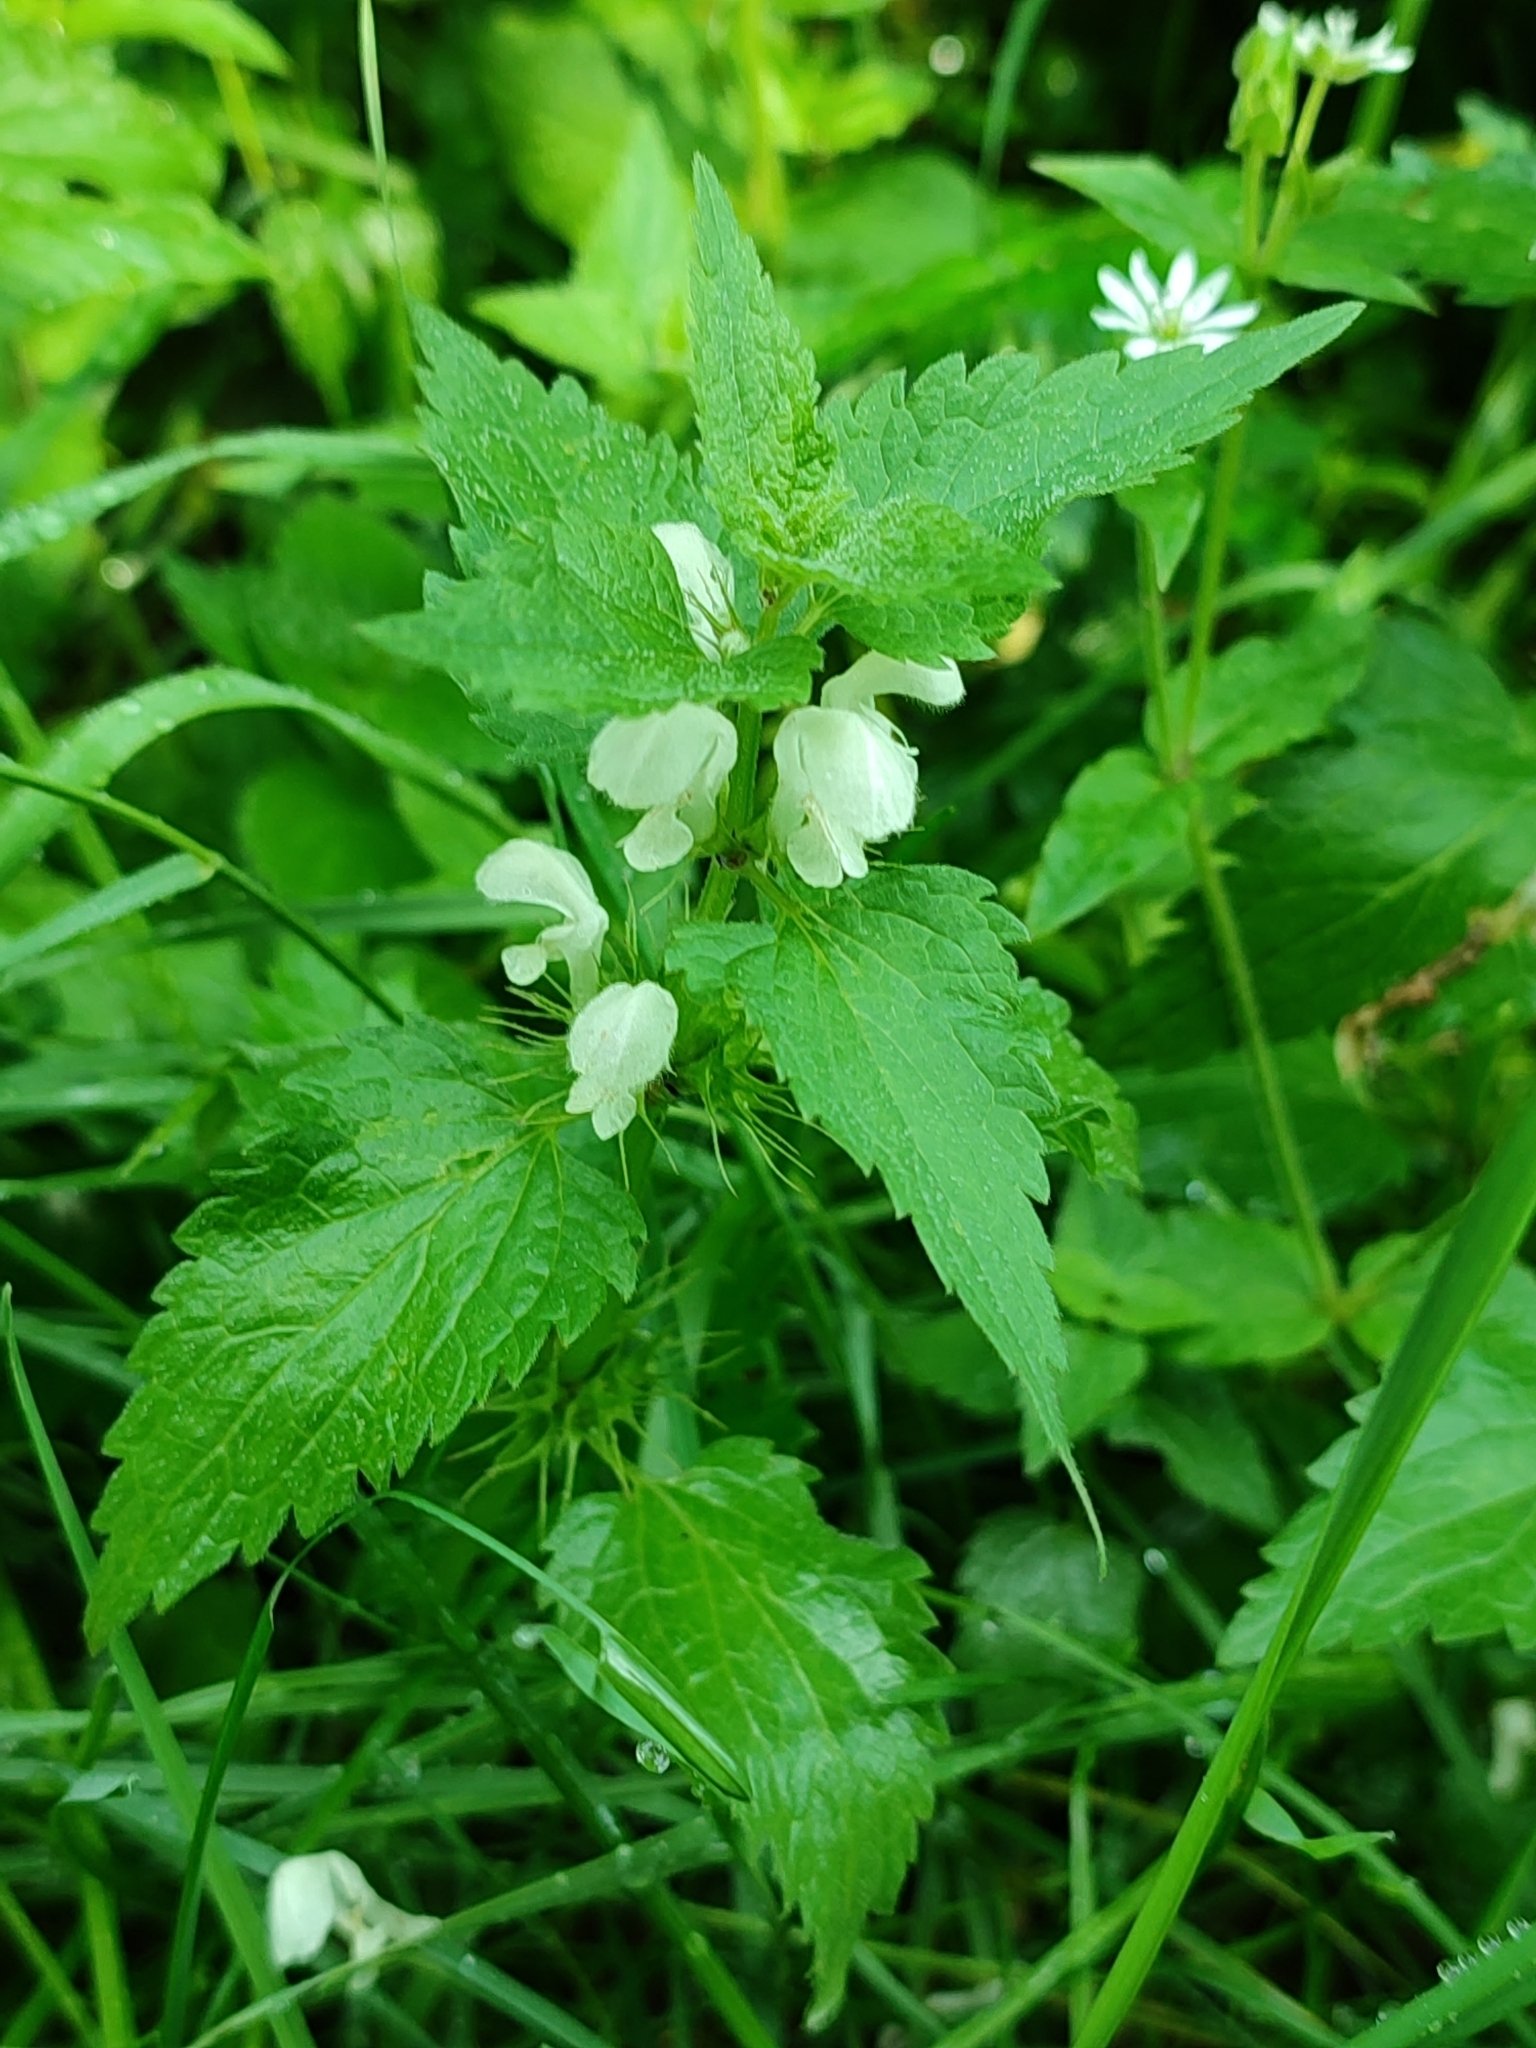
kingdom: Plantae
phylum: Tracheophyta
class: Magnoliopsida
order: Lamiales
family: Lamiaceae
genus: Lamium
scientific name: Lamium album
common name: White dead-nettle
